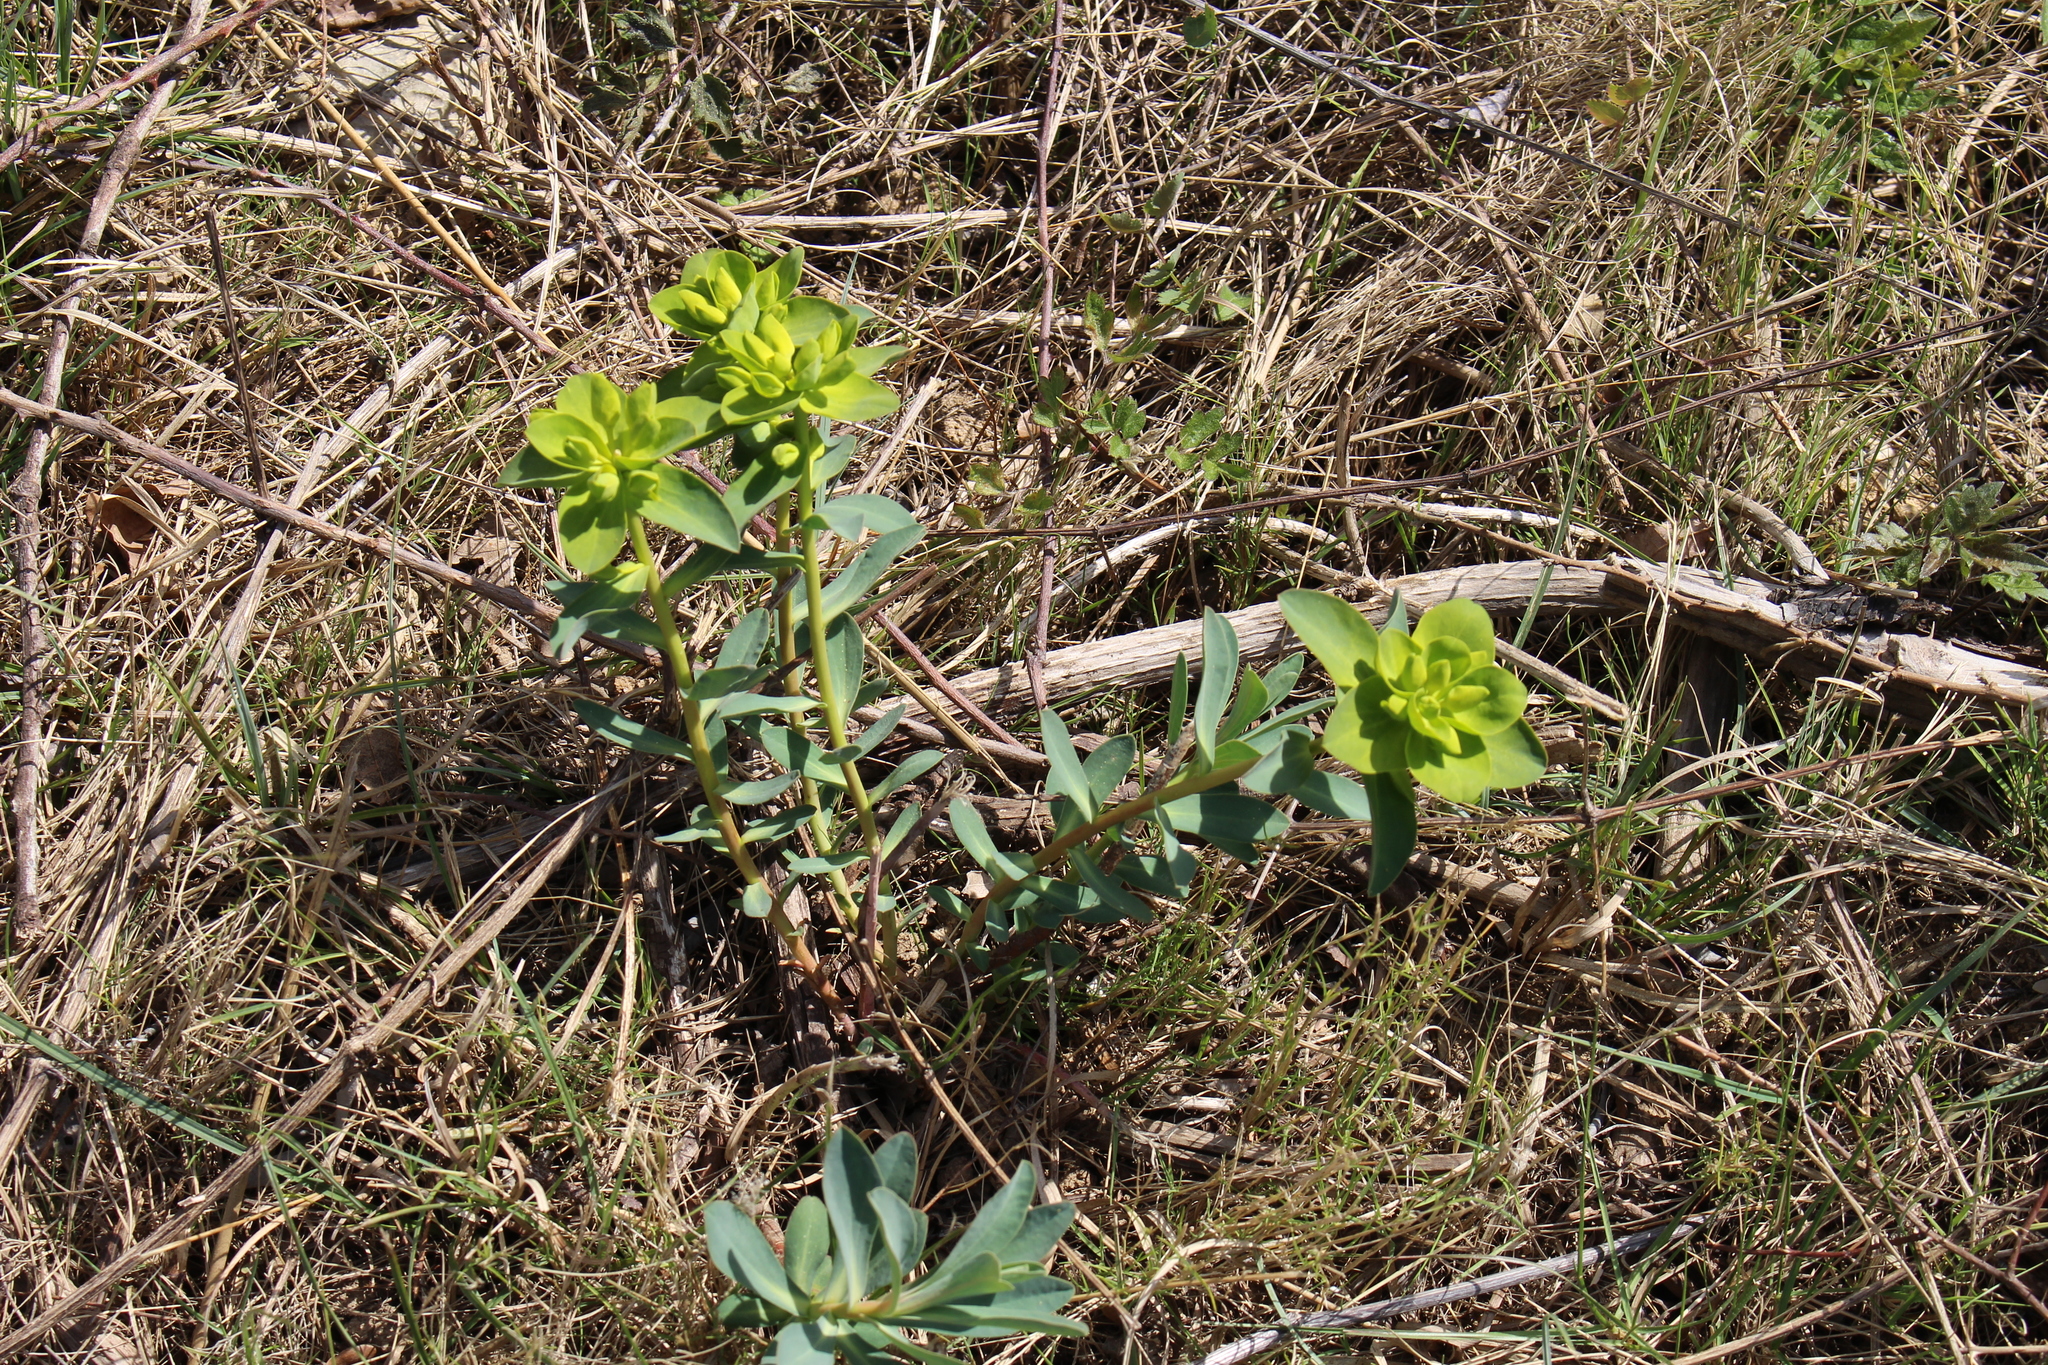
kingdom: Plantae
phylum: Tracheophyta
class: Magnoliopsida
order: Malpighiales
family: Euphorbiaceae
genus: Euphorbia
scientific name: Euphorbia nicaeensis
